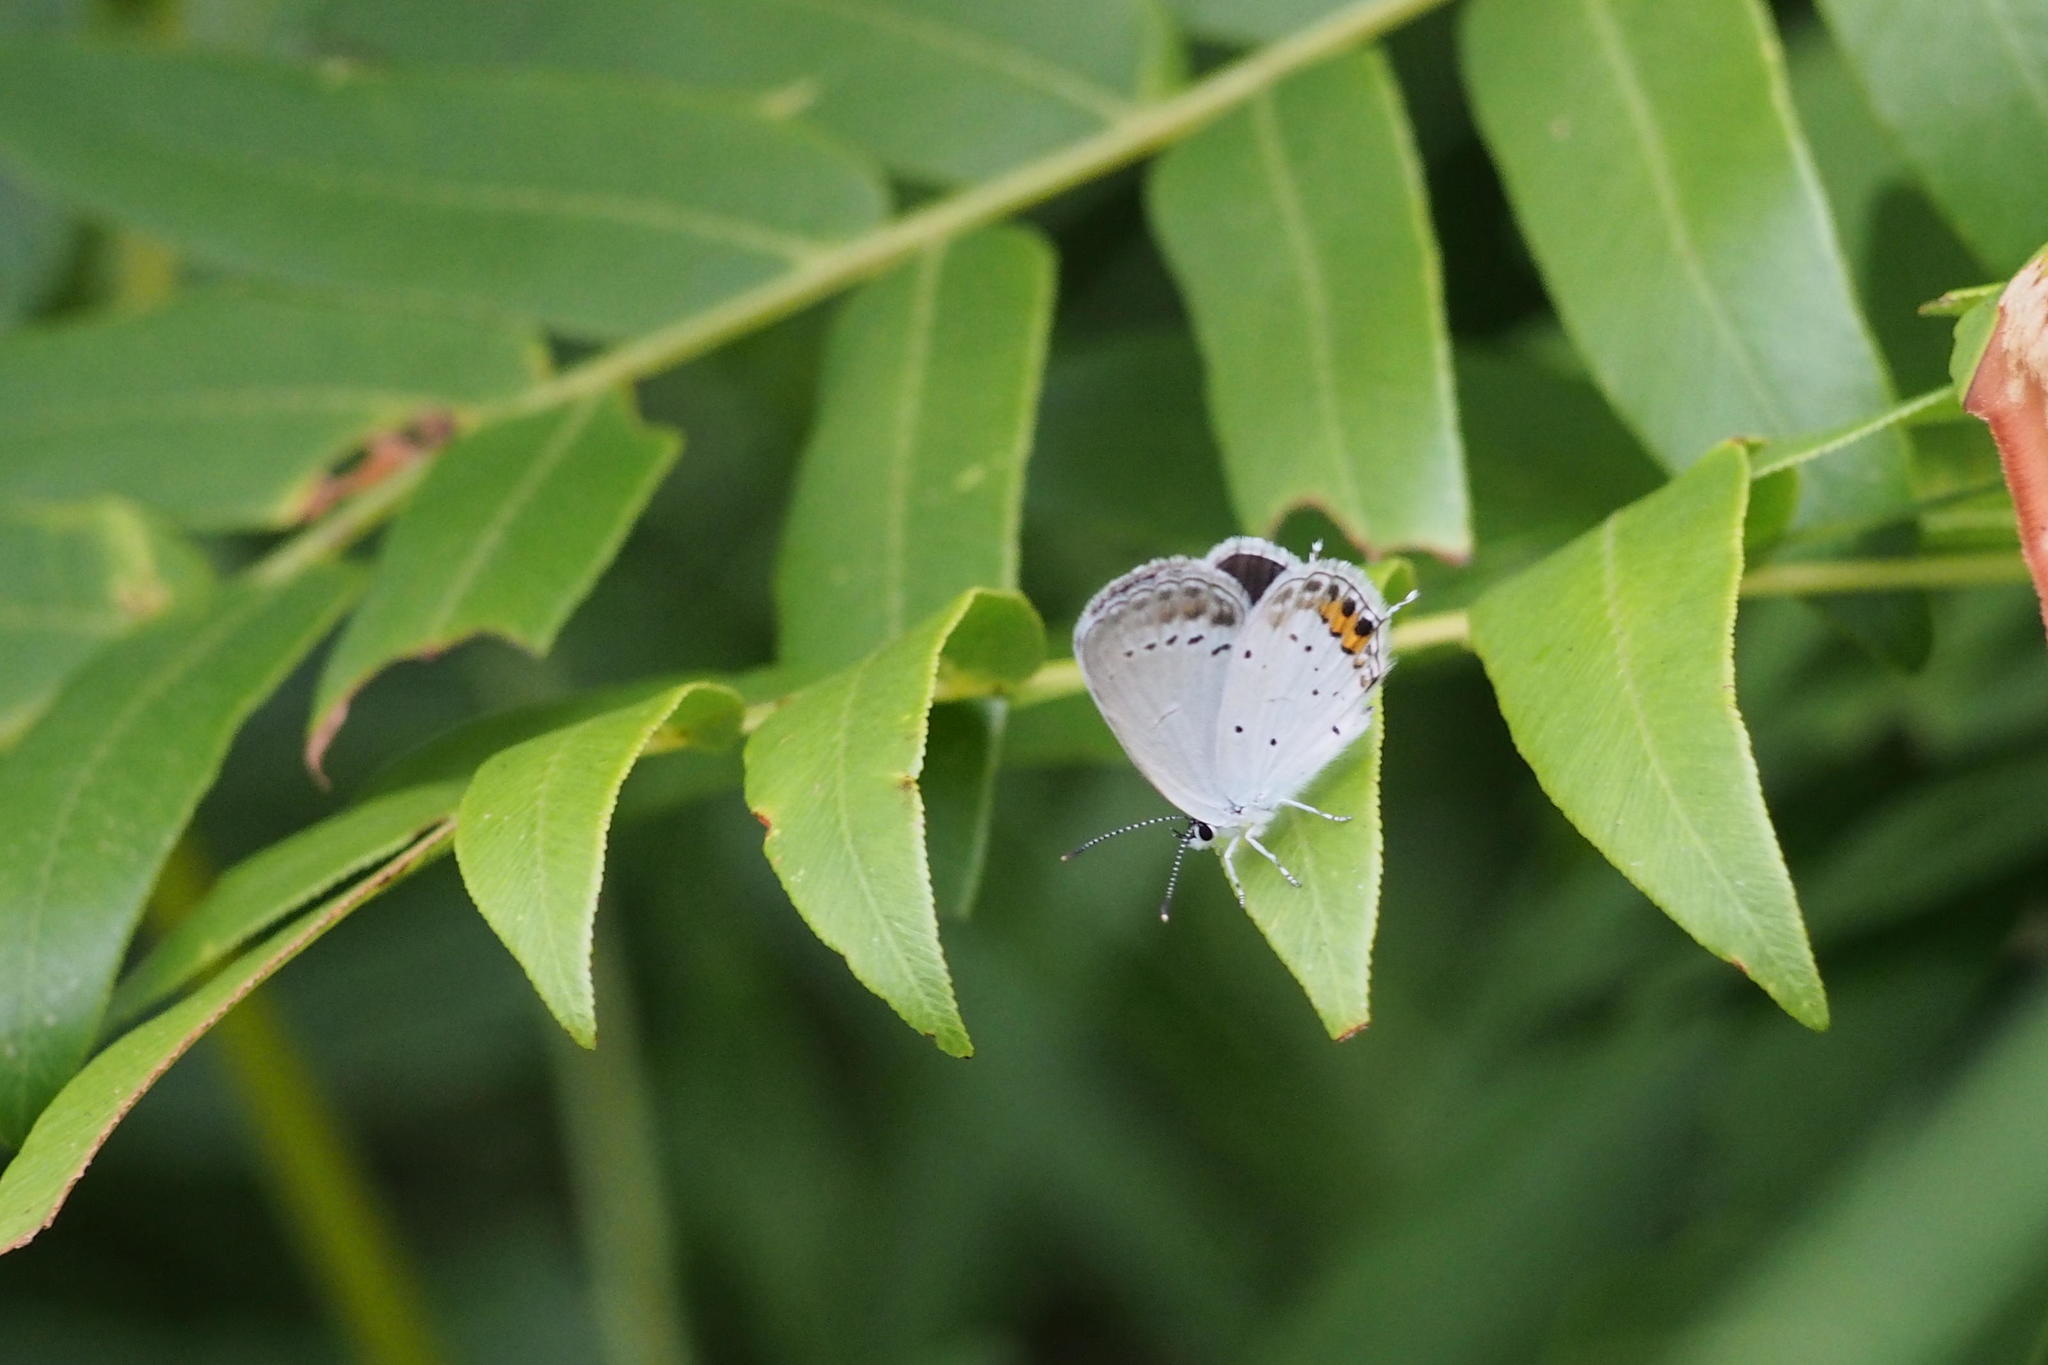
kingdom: Animalia
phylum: Arthropoda
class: Insecta
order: Lepidoptera
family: Lycaenidae
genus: Elkalyce
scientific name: Elkalyce argiades
